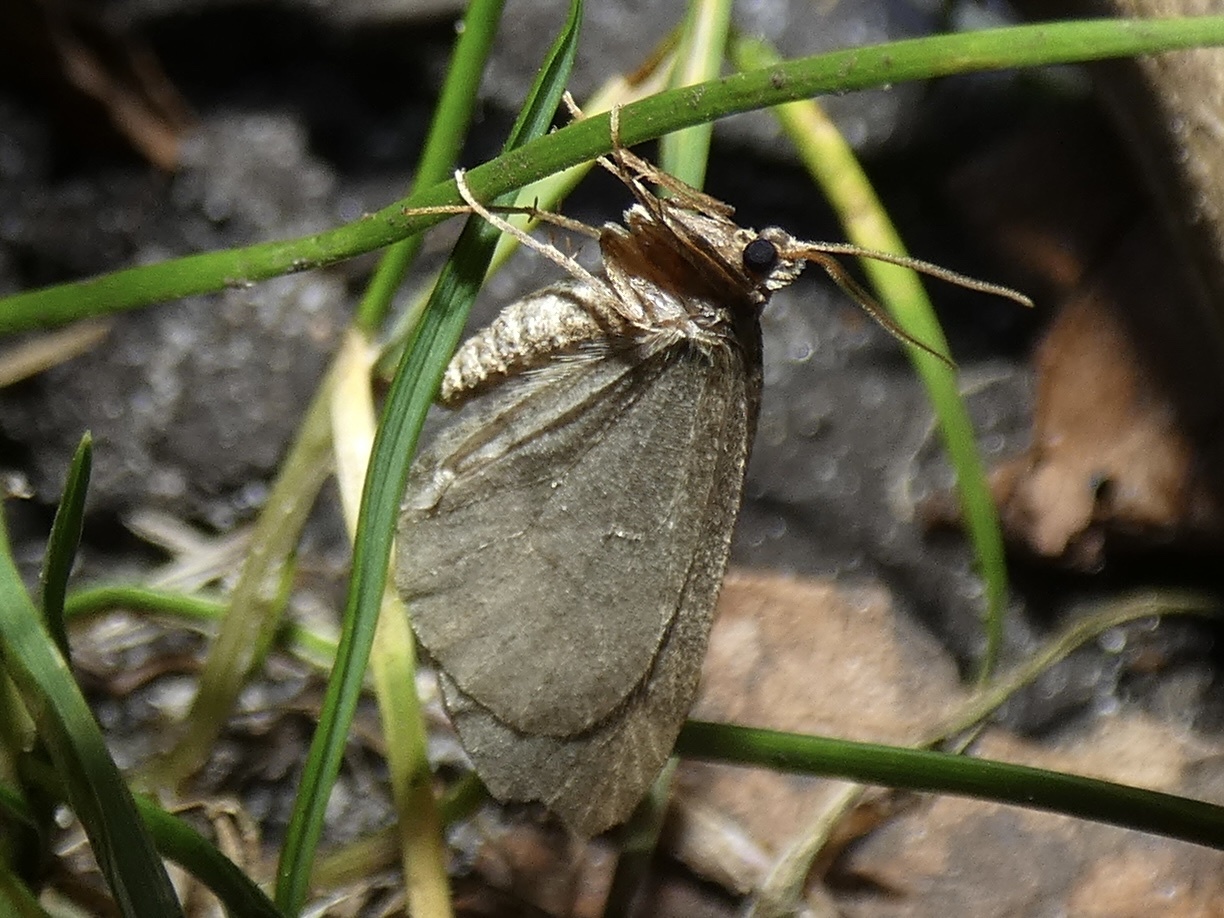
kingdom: Animalia
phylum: Arthropoda
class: Insecta
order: Lepidoptera
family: Geometridae
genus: Operophtera
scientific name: Operophtera brumata
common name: Winter moth
